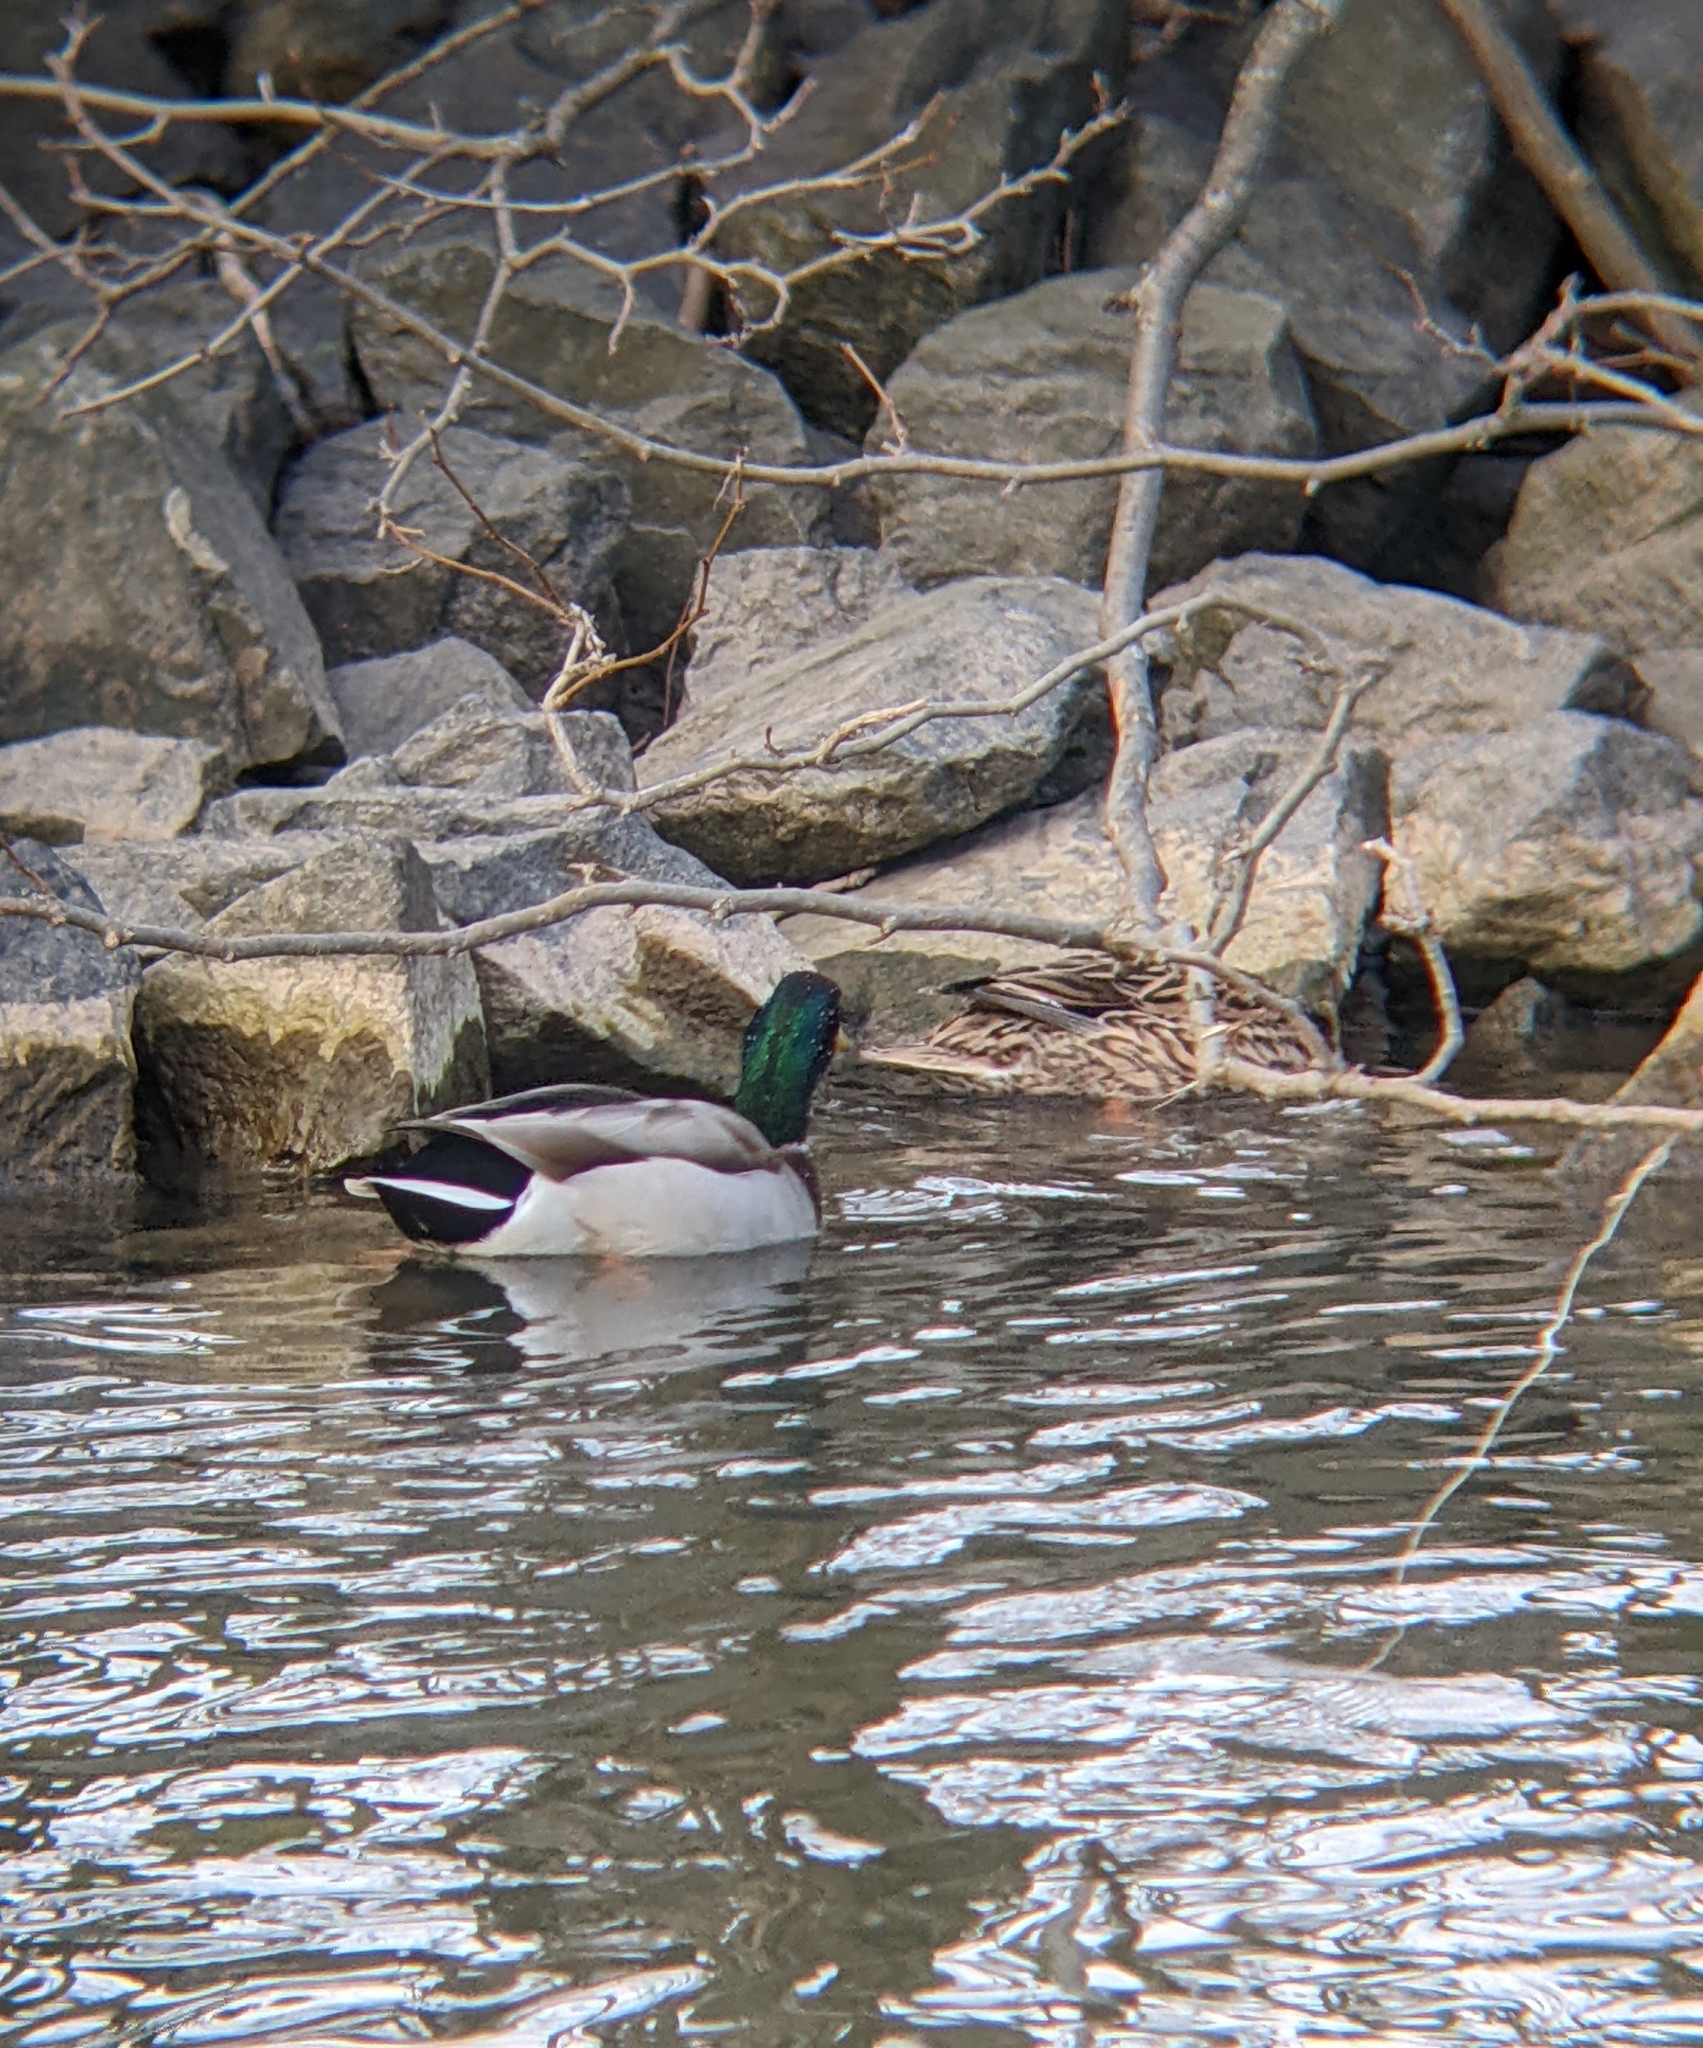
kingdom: Animalia
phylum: Chordata
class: Aves
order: Anseriformes
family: Anatidae
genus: Anas
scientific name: Anas platyrhynchos
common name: Mallard
